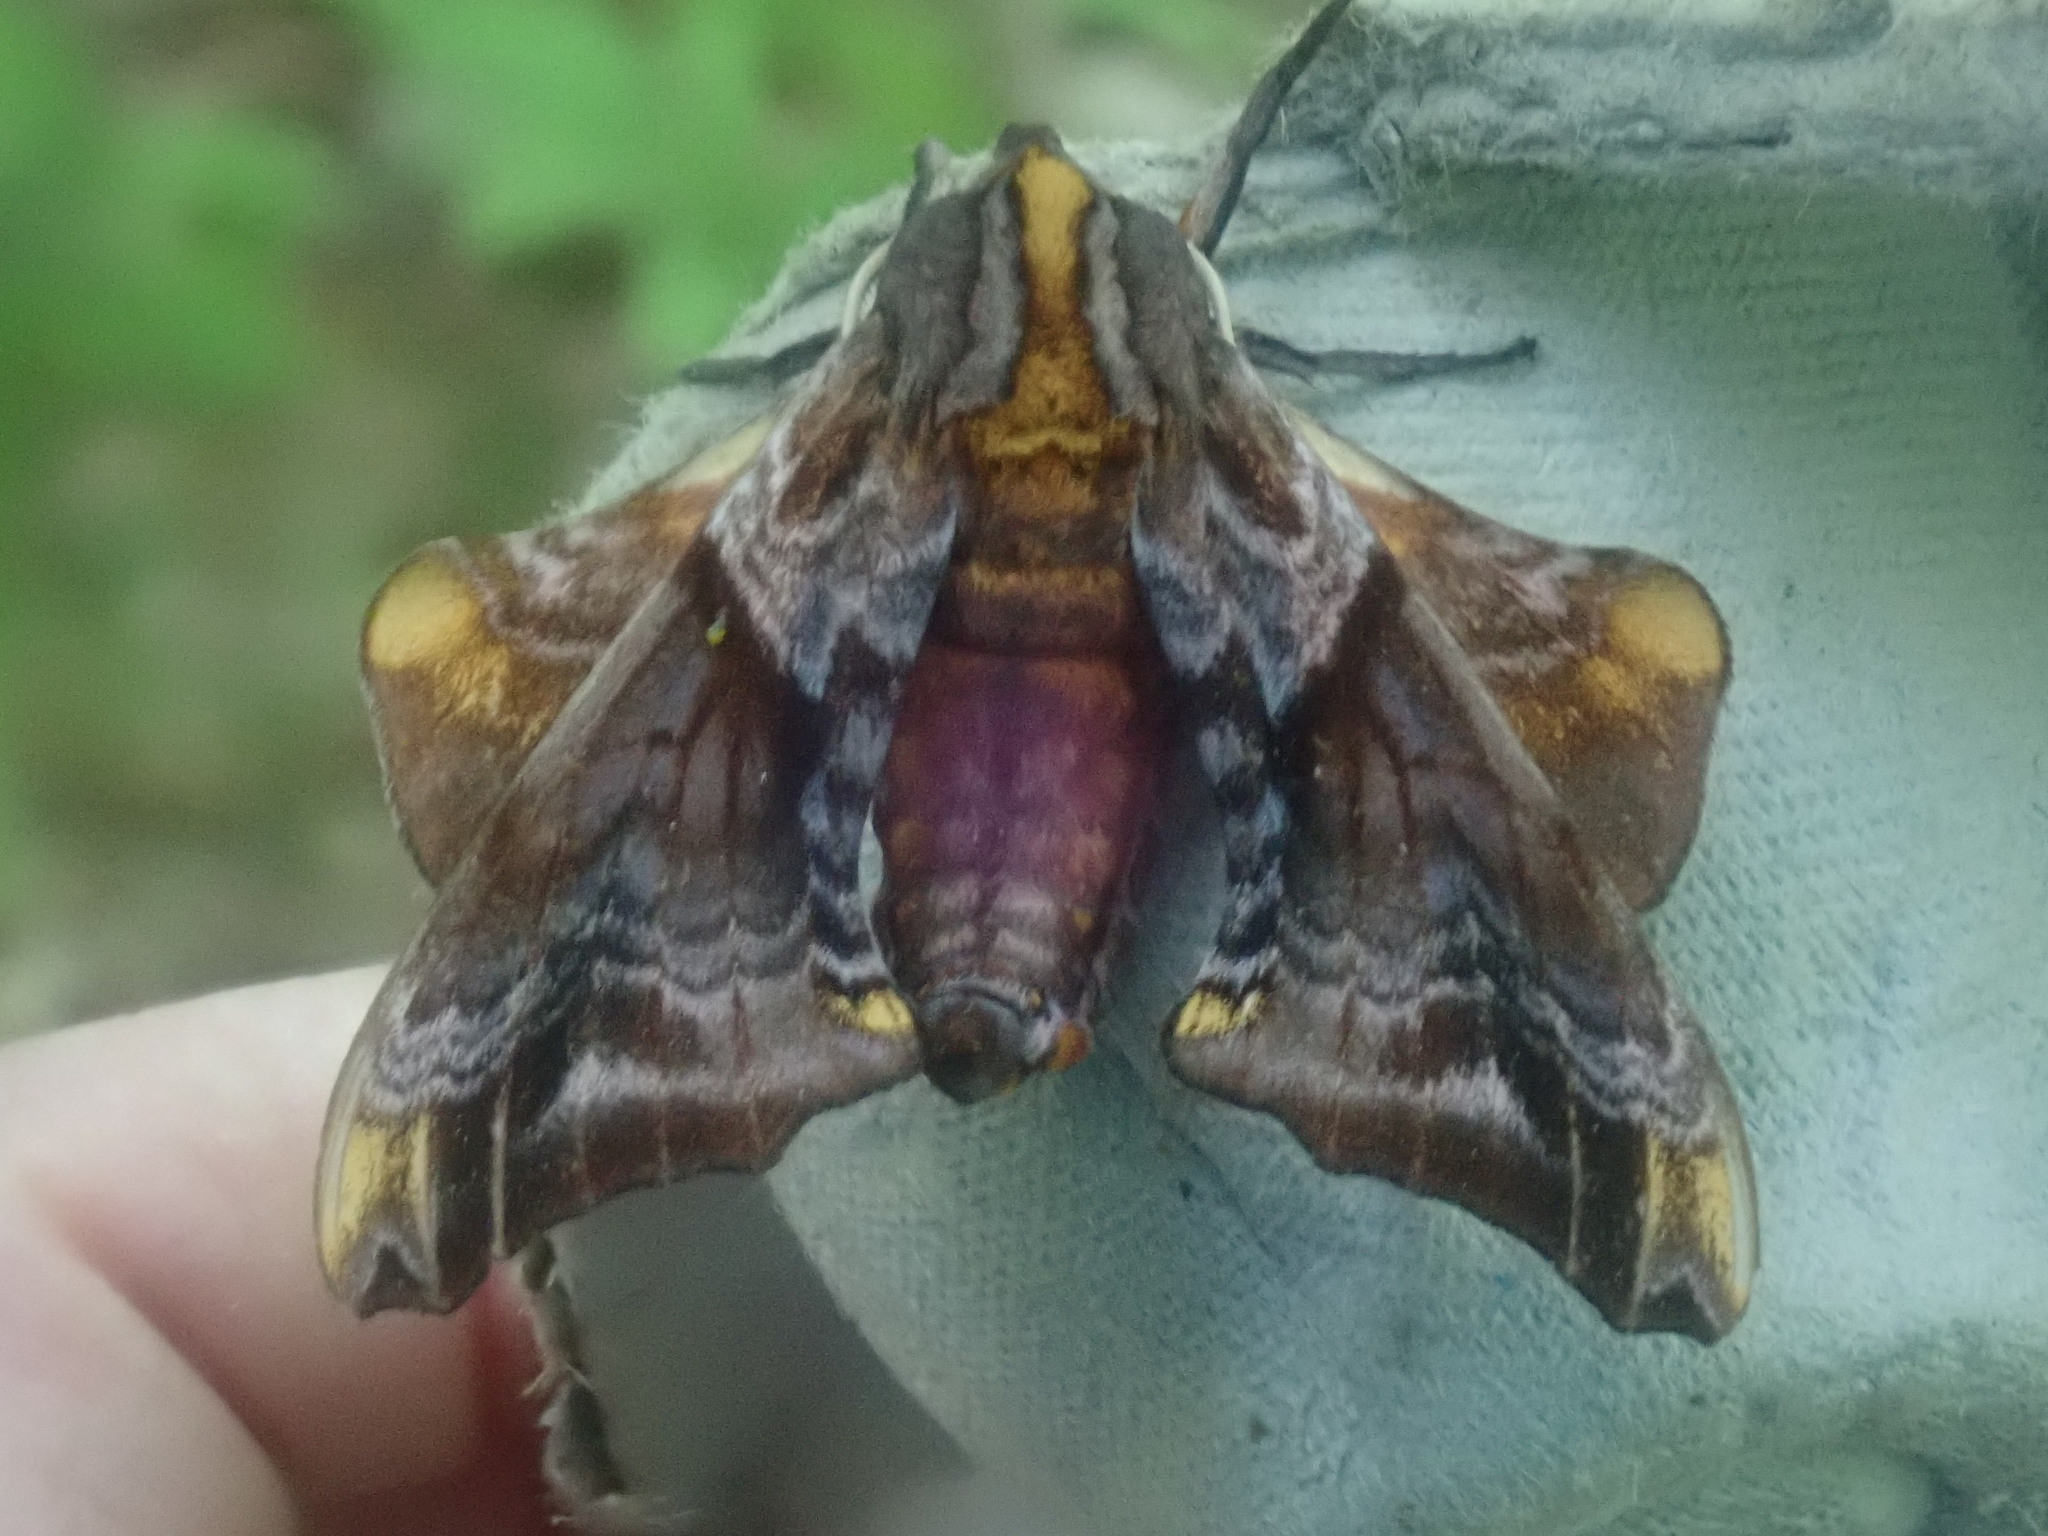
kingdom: Animalia
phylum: Arthropoda
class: Insecta
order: Lepidoptera
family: Sphingidae
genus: Paonias
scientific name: Paonias myops
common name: Small-eyed sphinx
